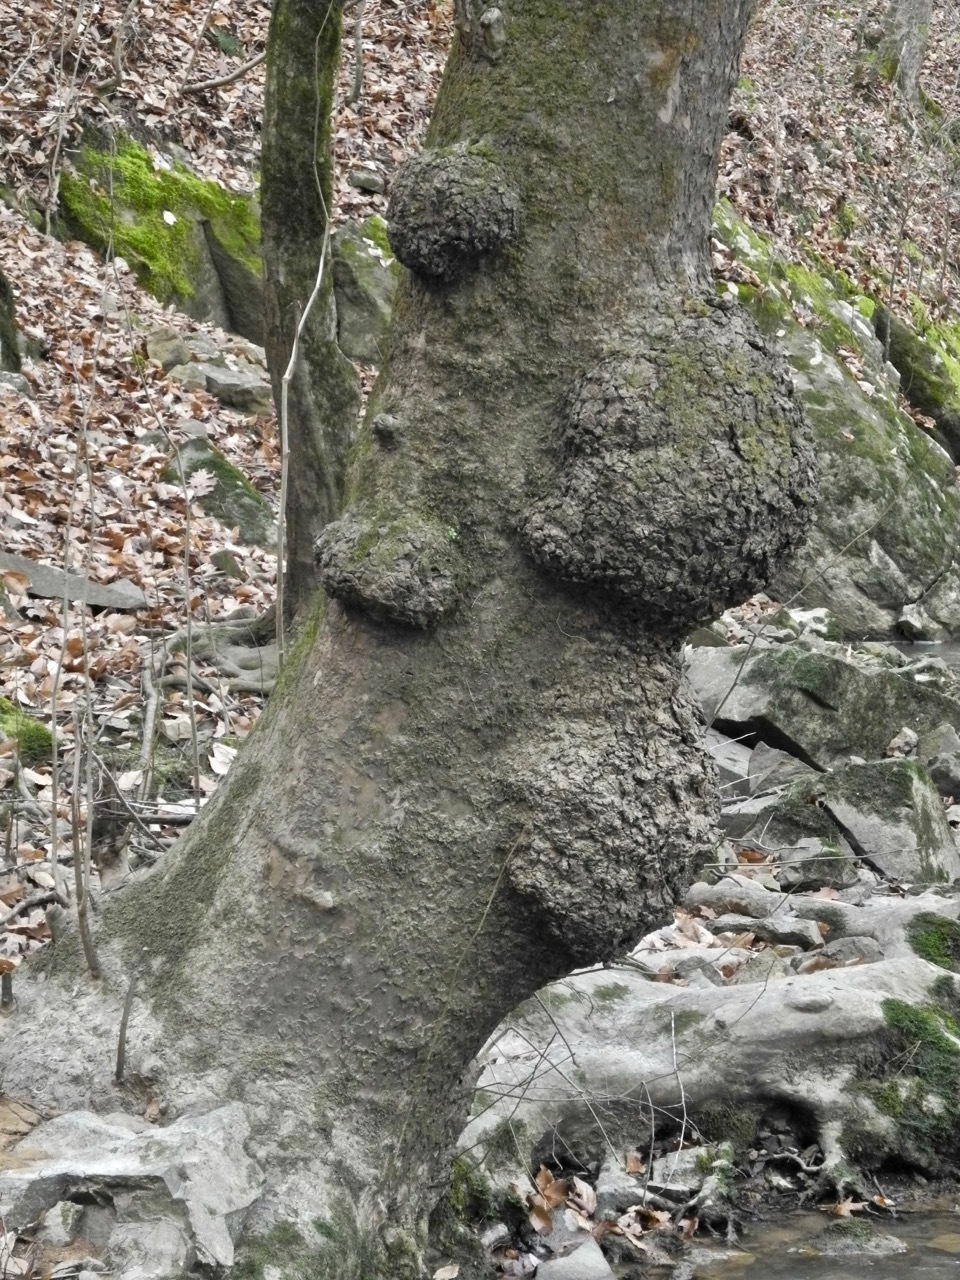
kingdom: Plantae
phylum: Tracheophyta
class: Magnoliopsida
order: Proteales
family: Platanaceae
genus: Platanus
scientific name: Platanus occidentalis
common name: American sycamore
